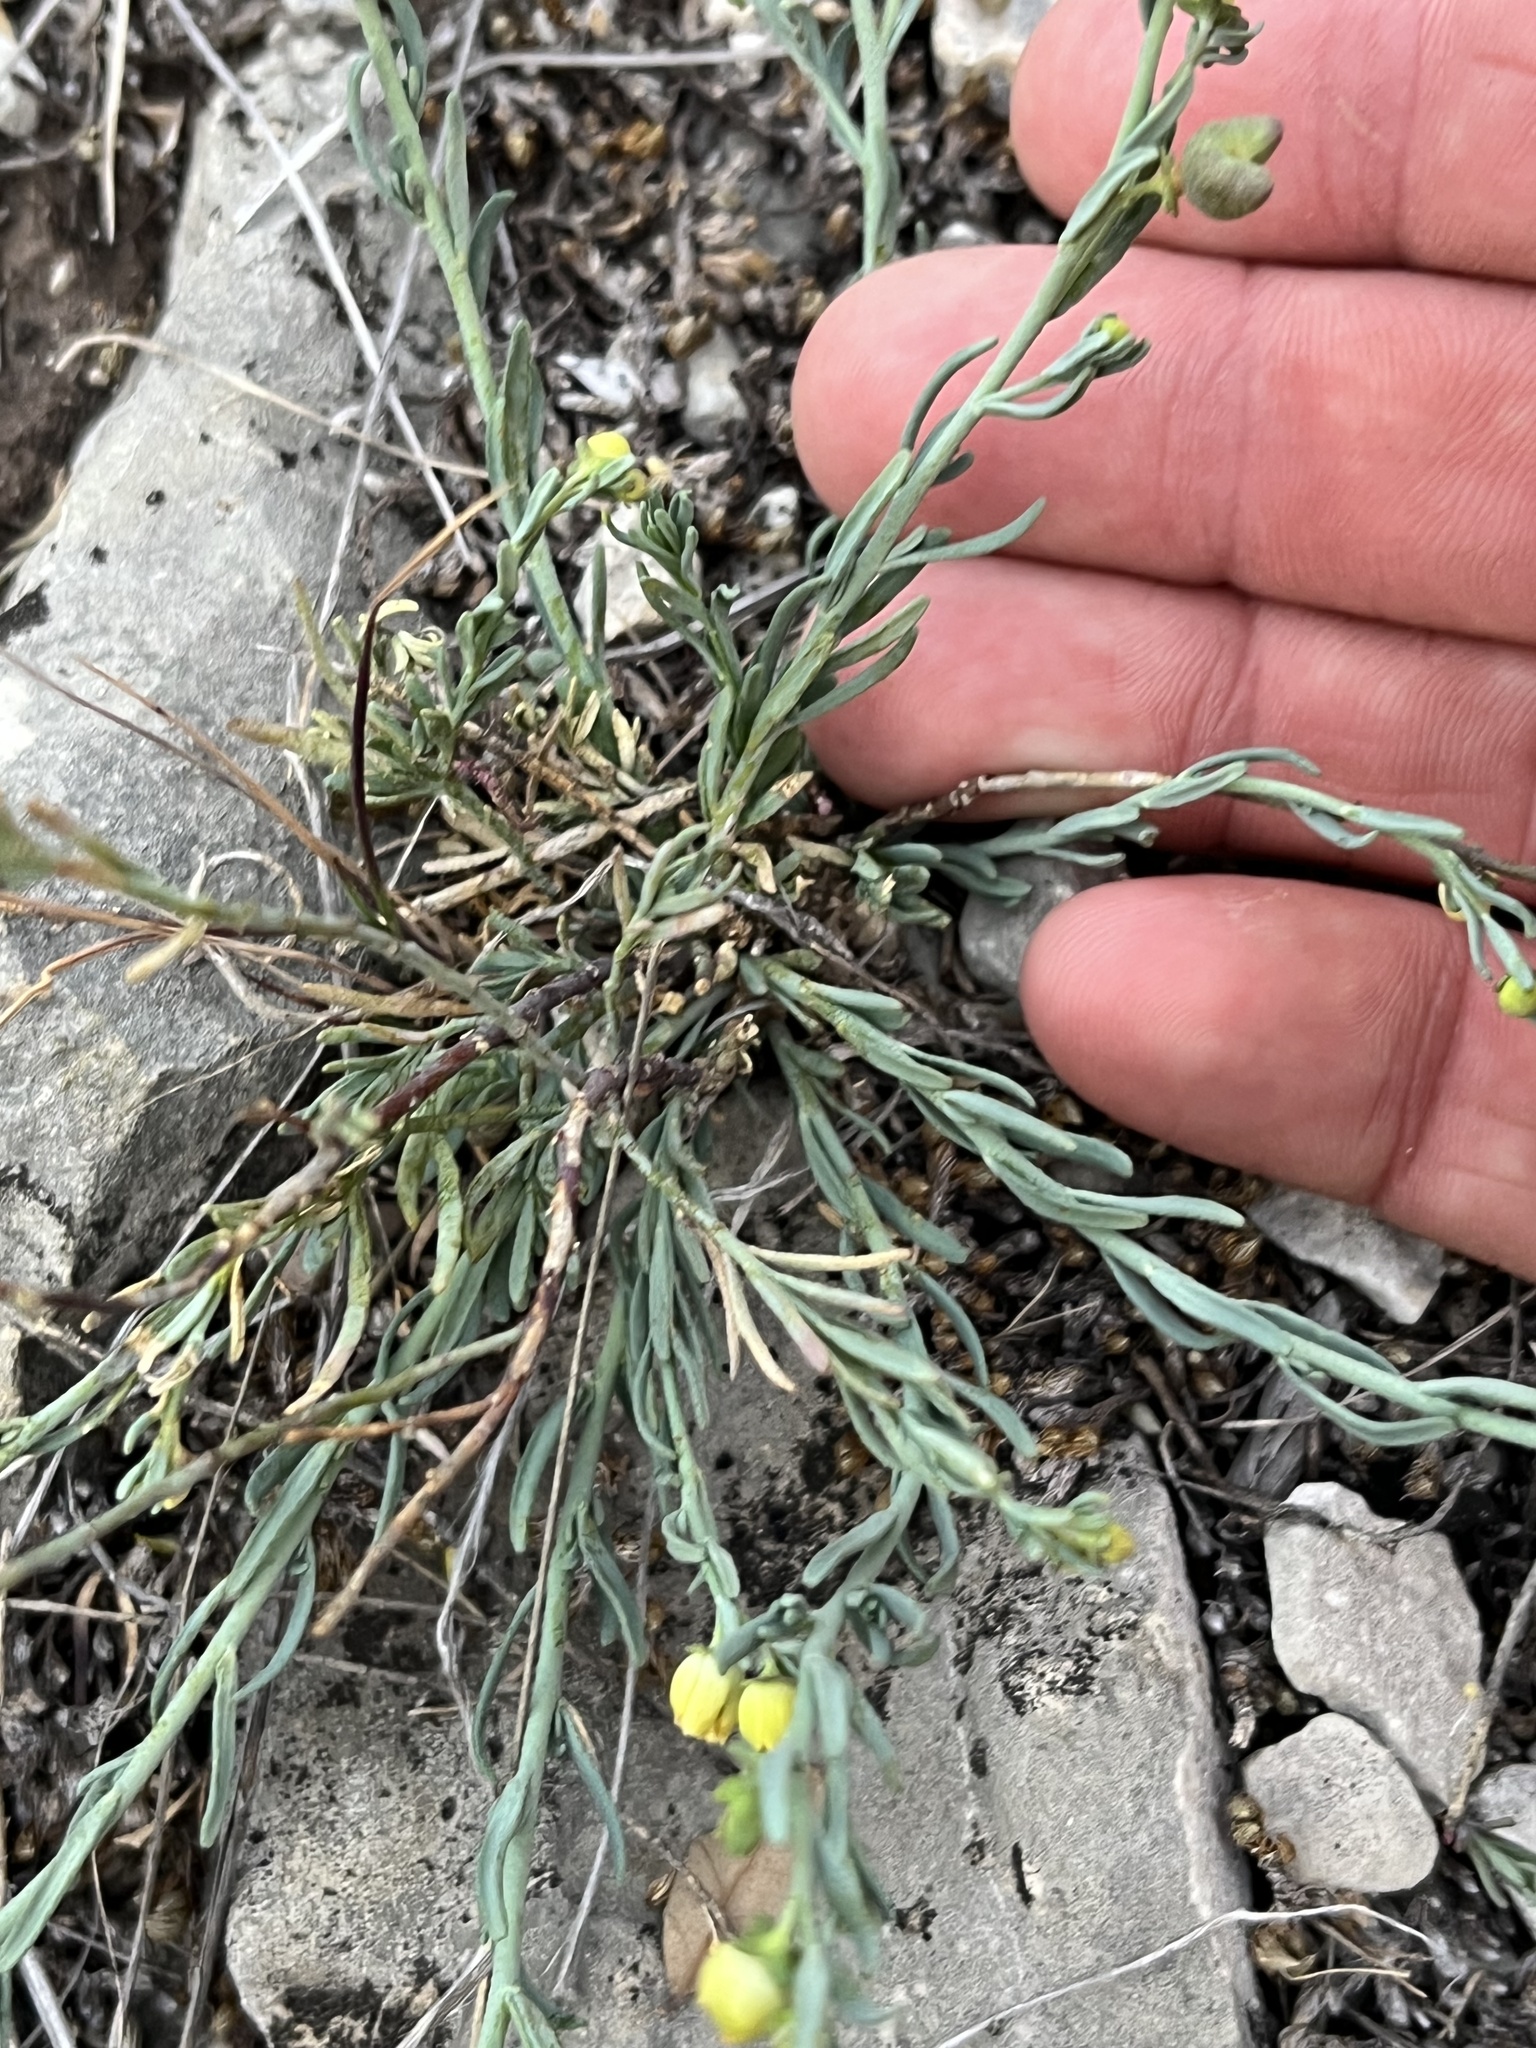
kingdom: Plantae
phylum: Tracheophyta
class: Magnoliopsida
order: Sapindales
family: Rutaceae
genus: Thamnosma
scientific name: Thamnosma texana
